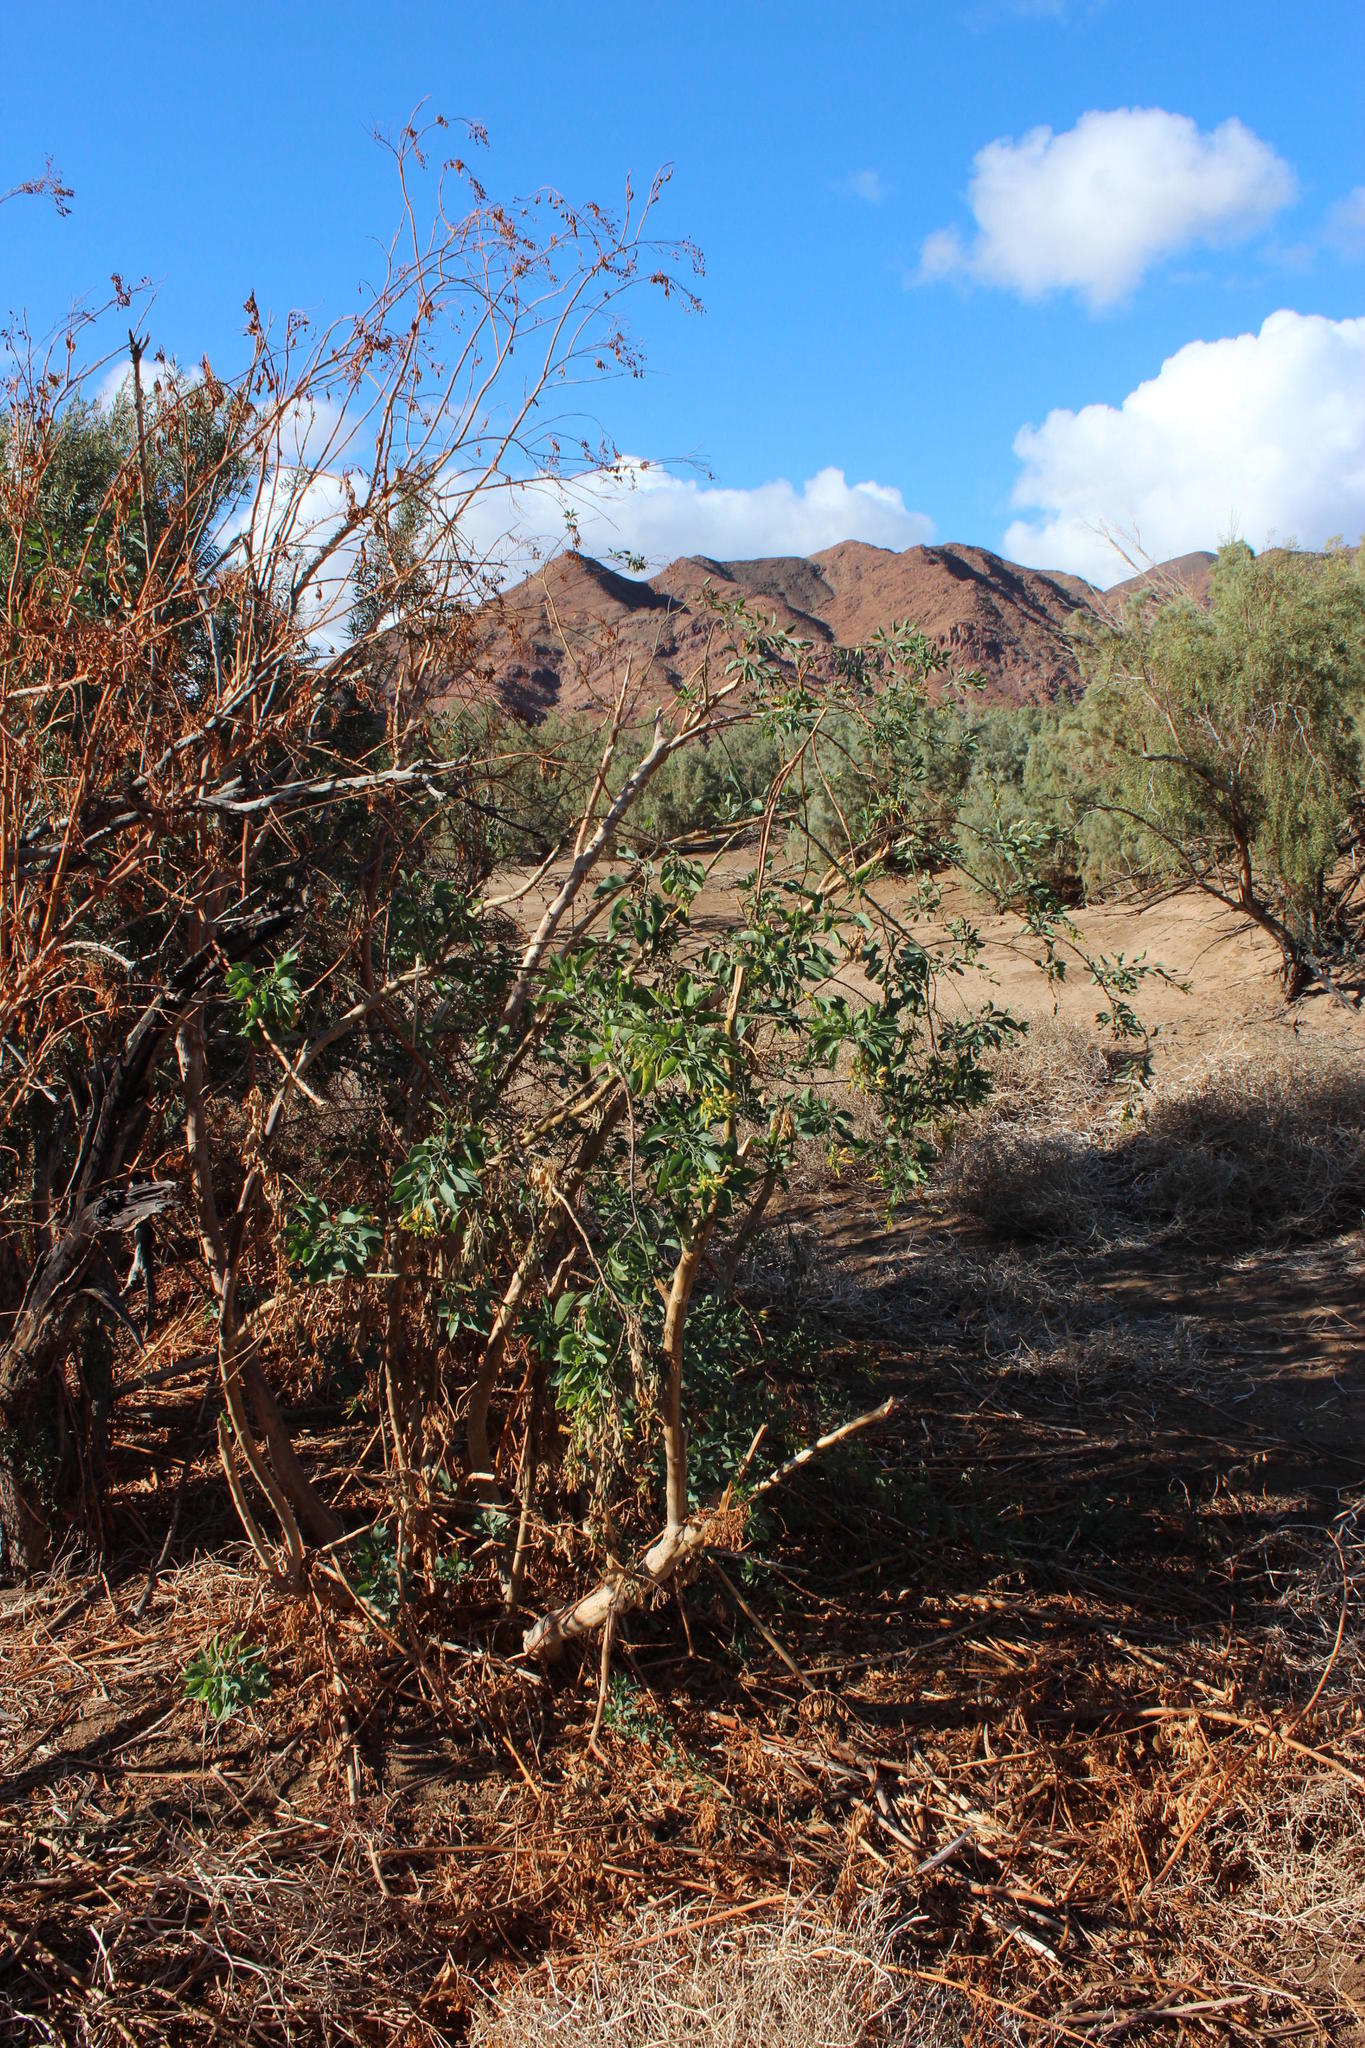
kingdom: Plantae
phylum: Tracheophyta
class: Magnoliopsida
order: Solanales
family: Solanaceae
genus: Nicotiana
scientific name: Nicotiana glauca
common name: Tree tobacco
